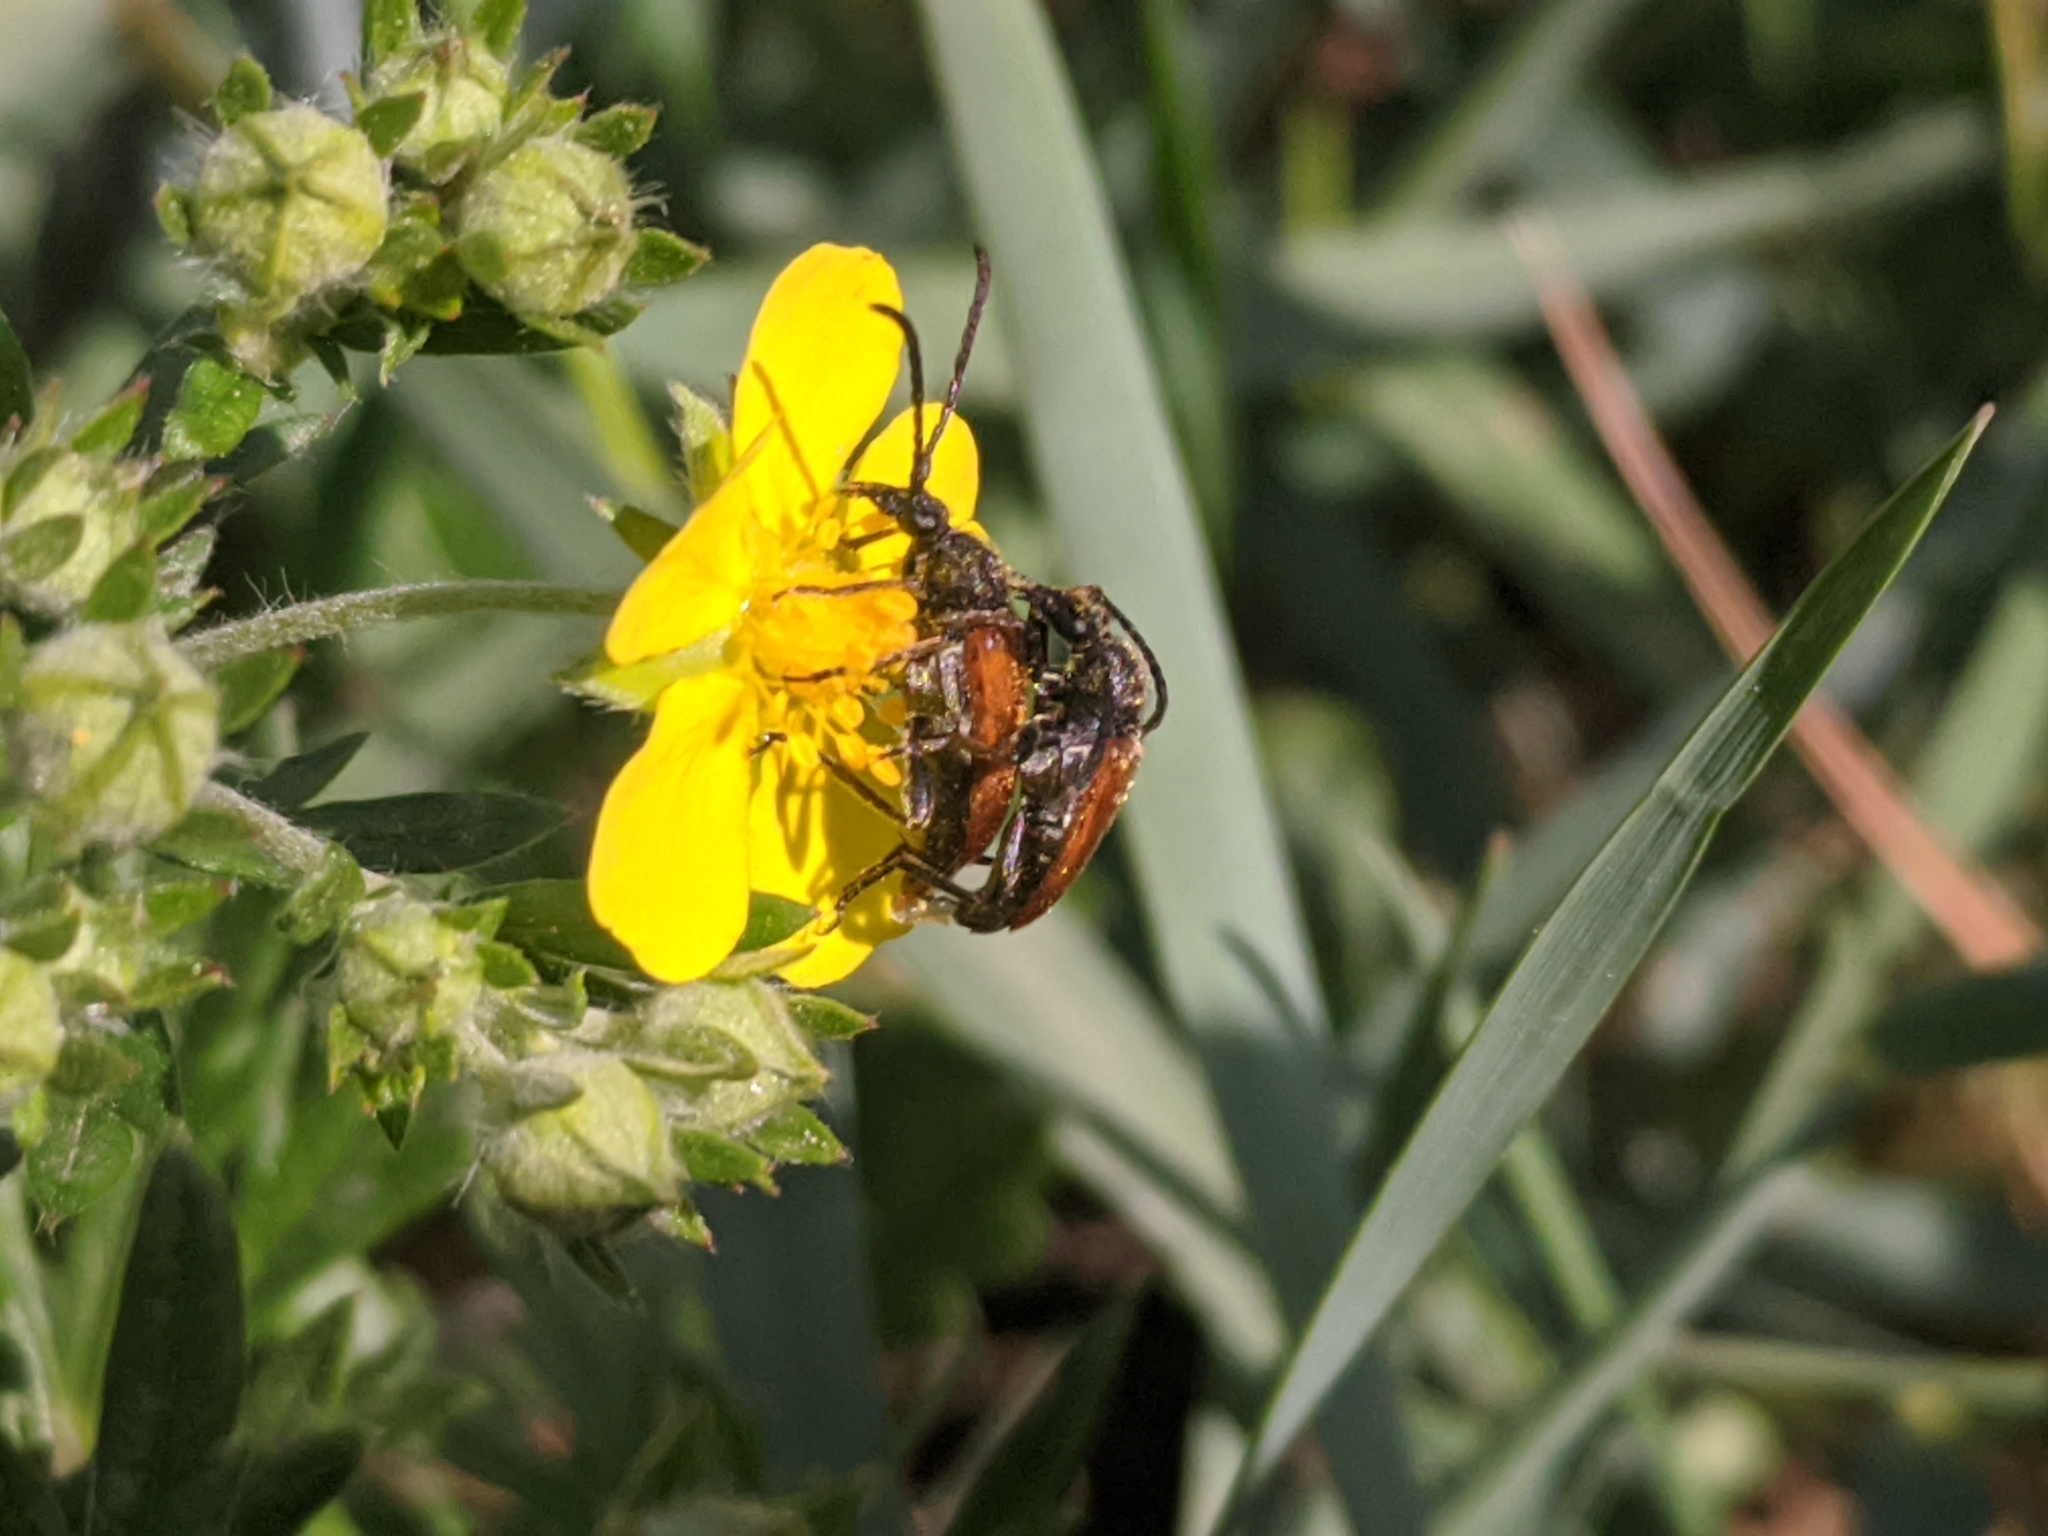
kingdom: Animalia
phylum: Arthropoda
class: Insecta
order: Coleoptera
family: Cerambycidae
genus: Pseudovadonia
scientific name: Pseudovadonia livida
